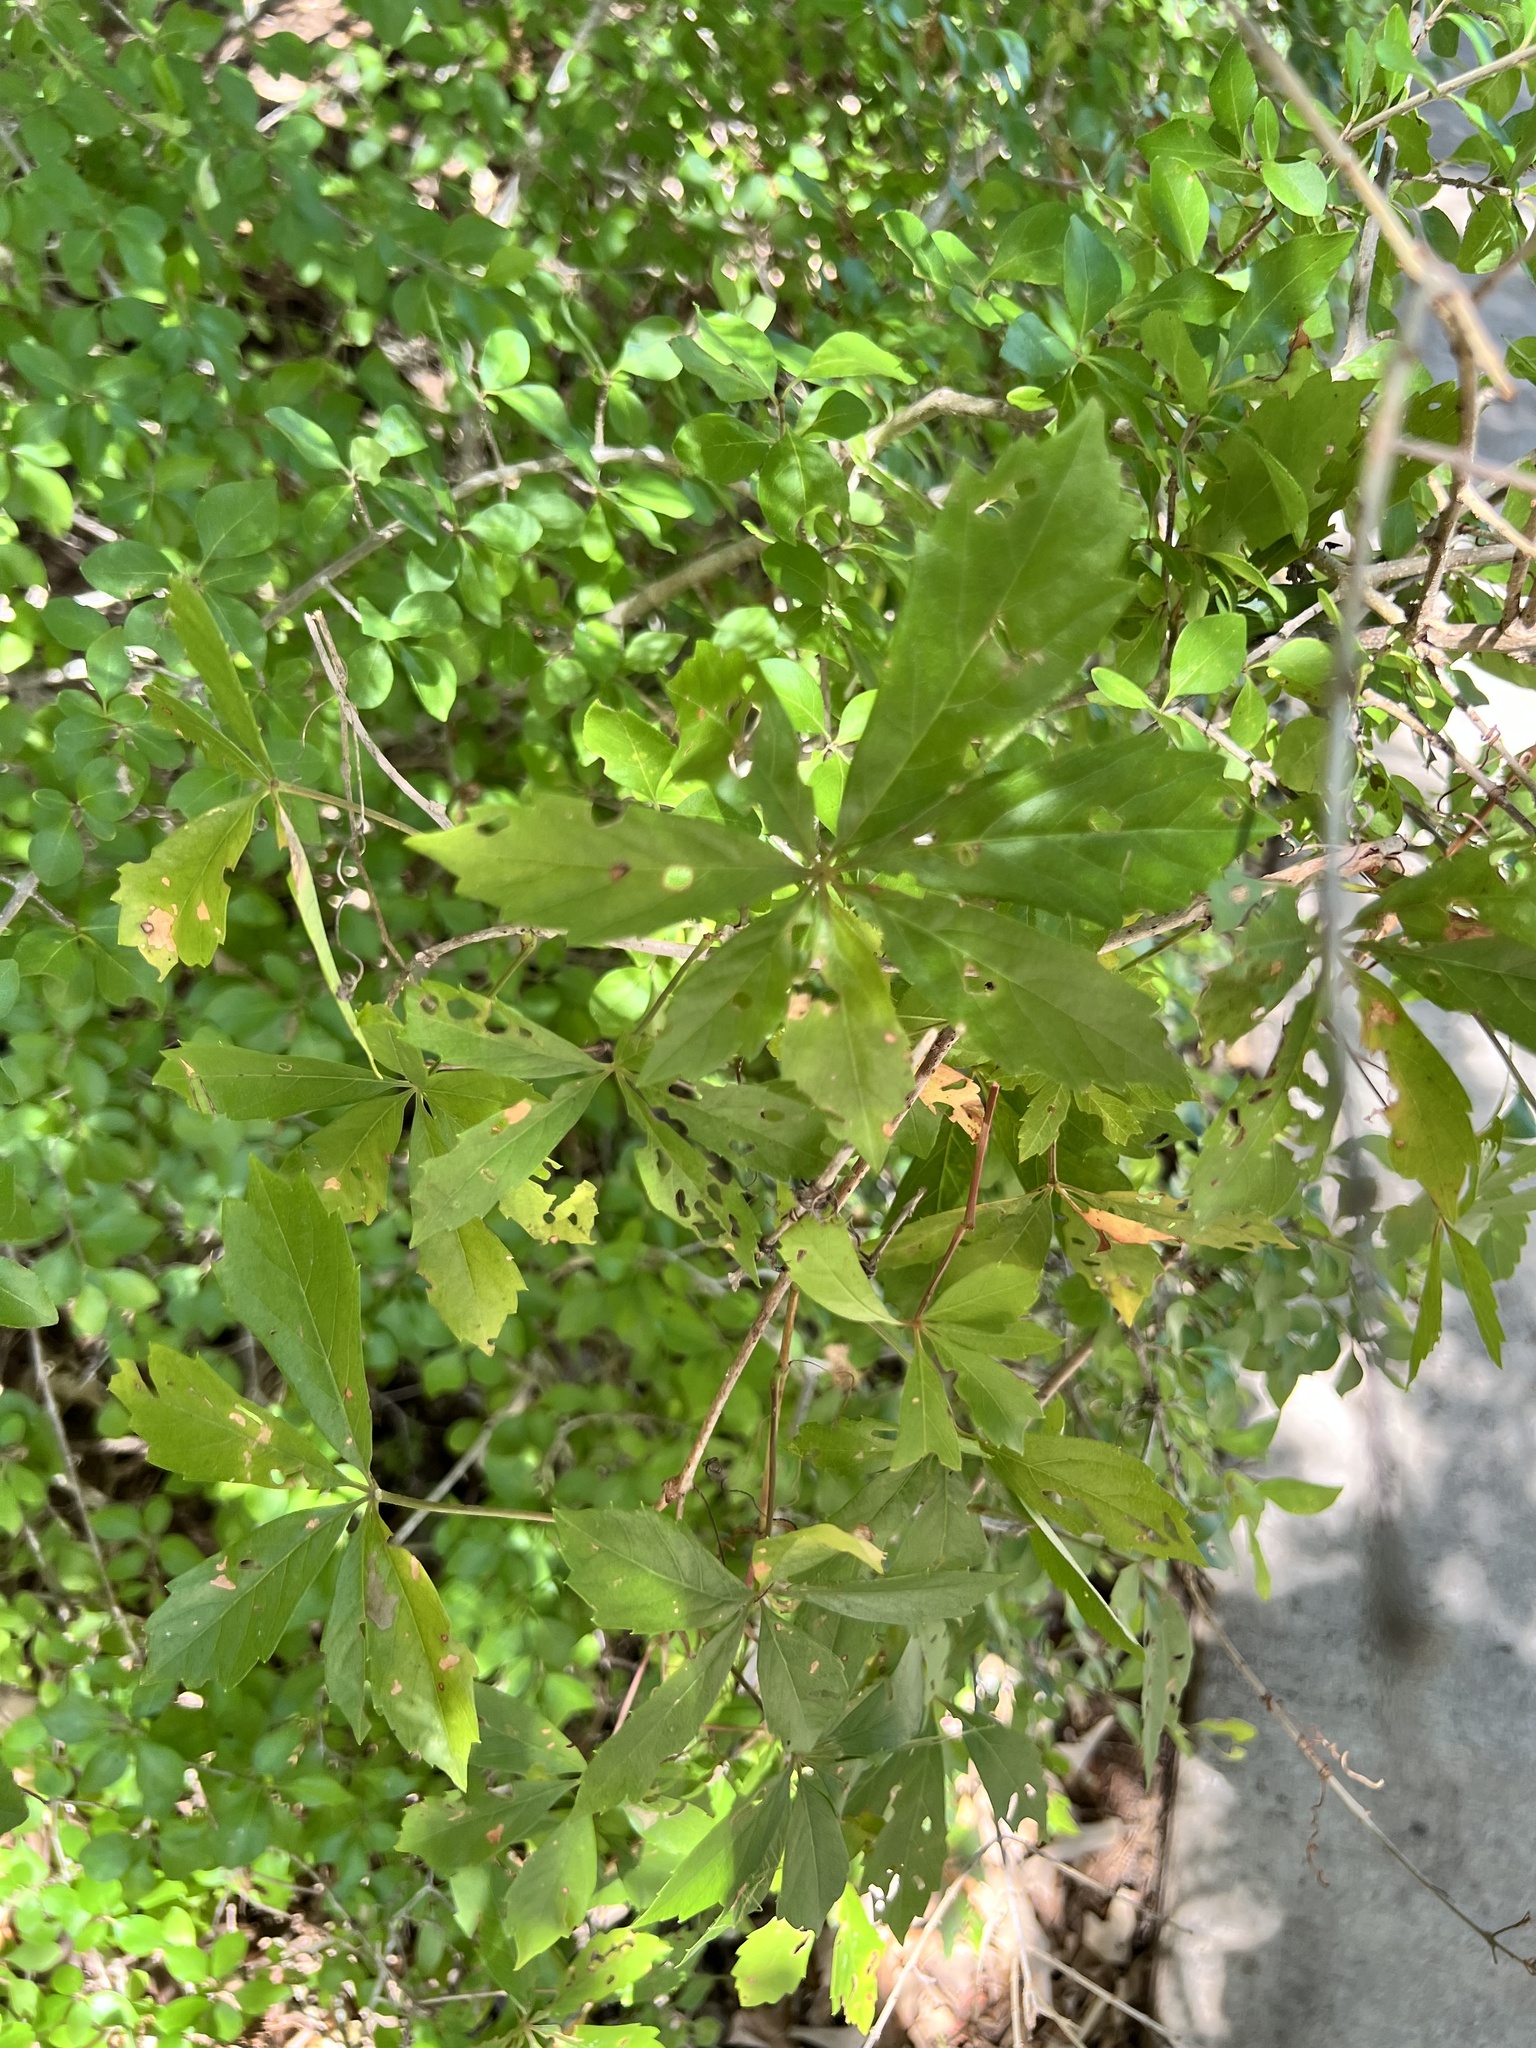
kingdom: Plantae
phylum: Tracheophyta
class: Magnoliopsida
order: Vitales
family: Vitaceae
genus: Parthenocissus
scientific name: Parthenocissus heptaphylla
